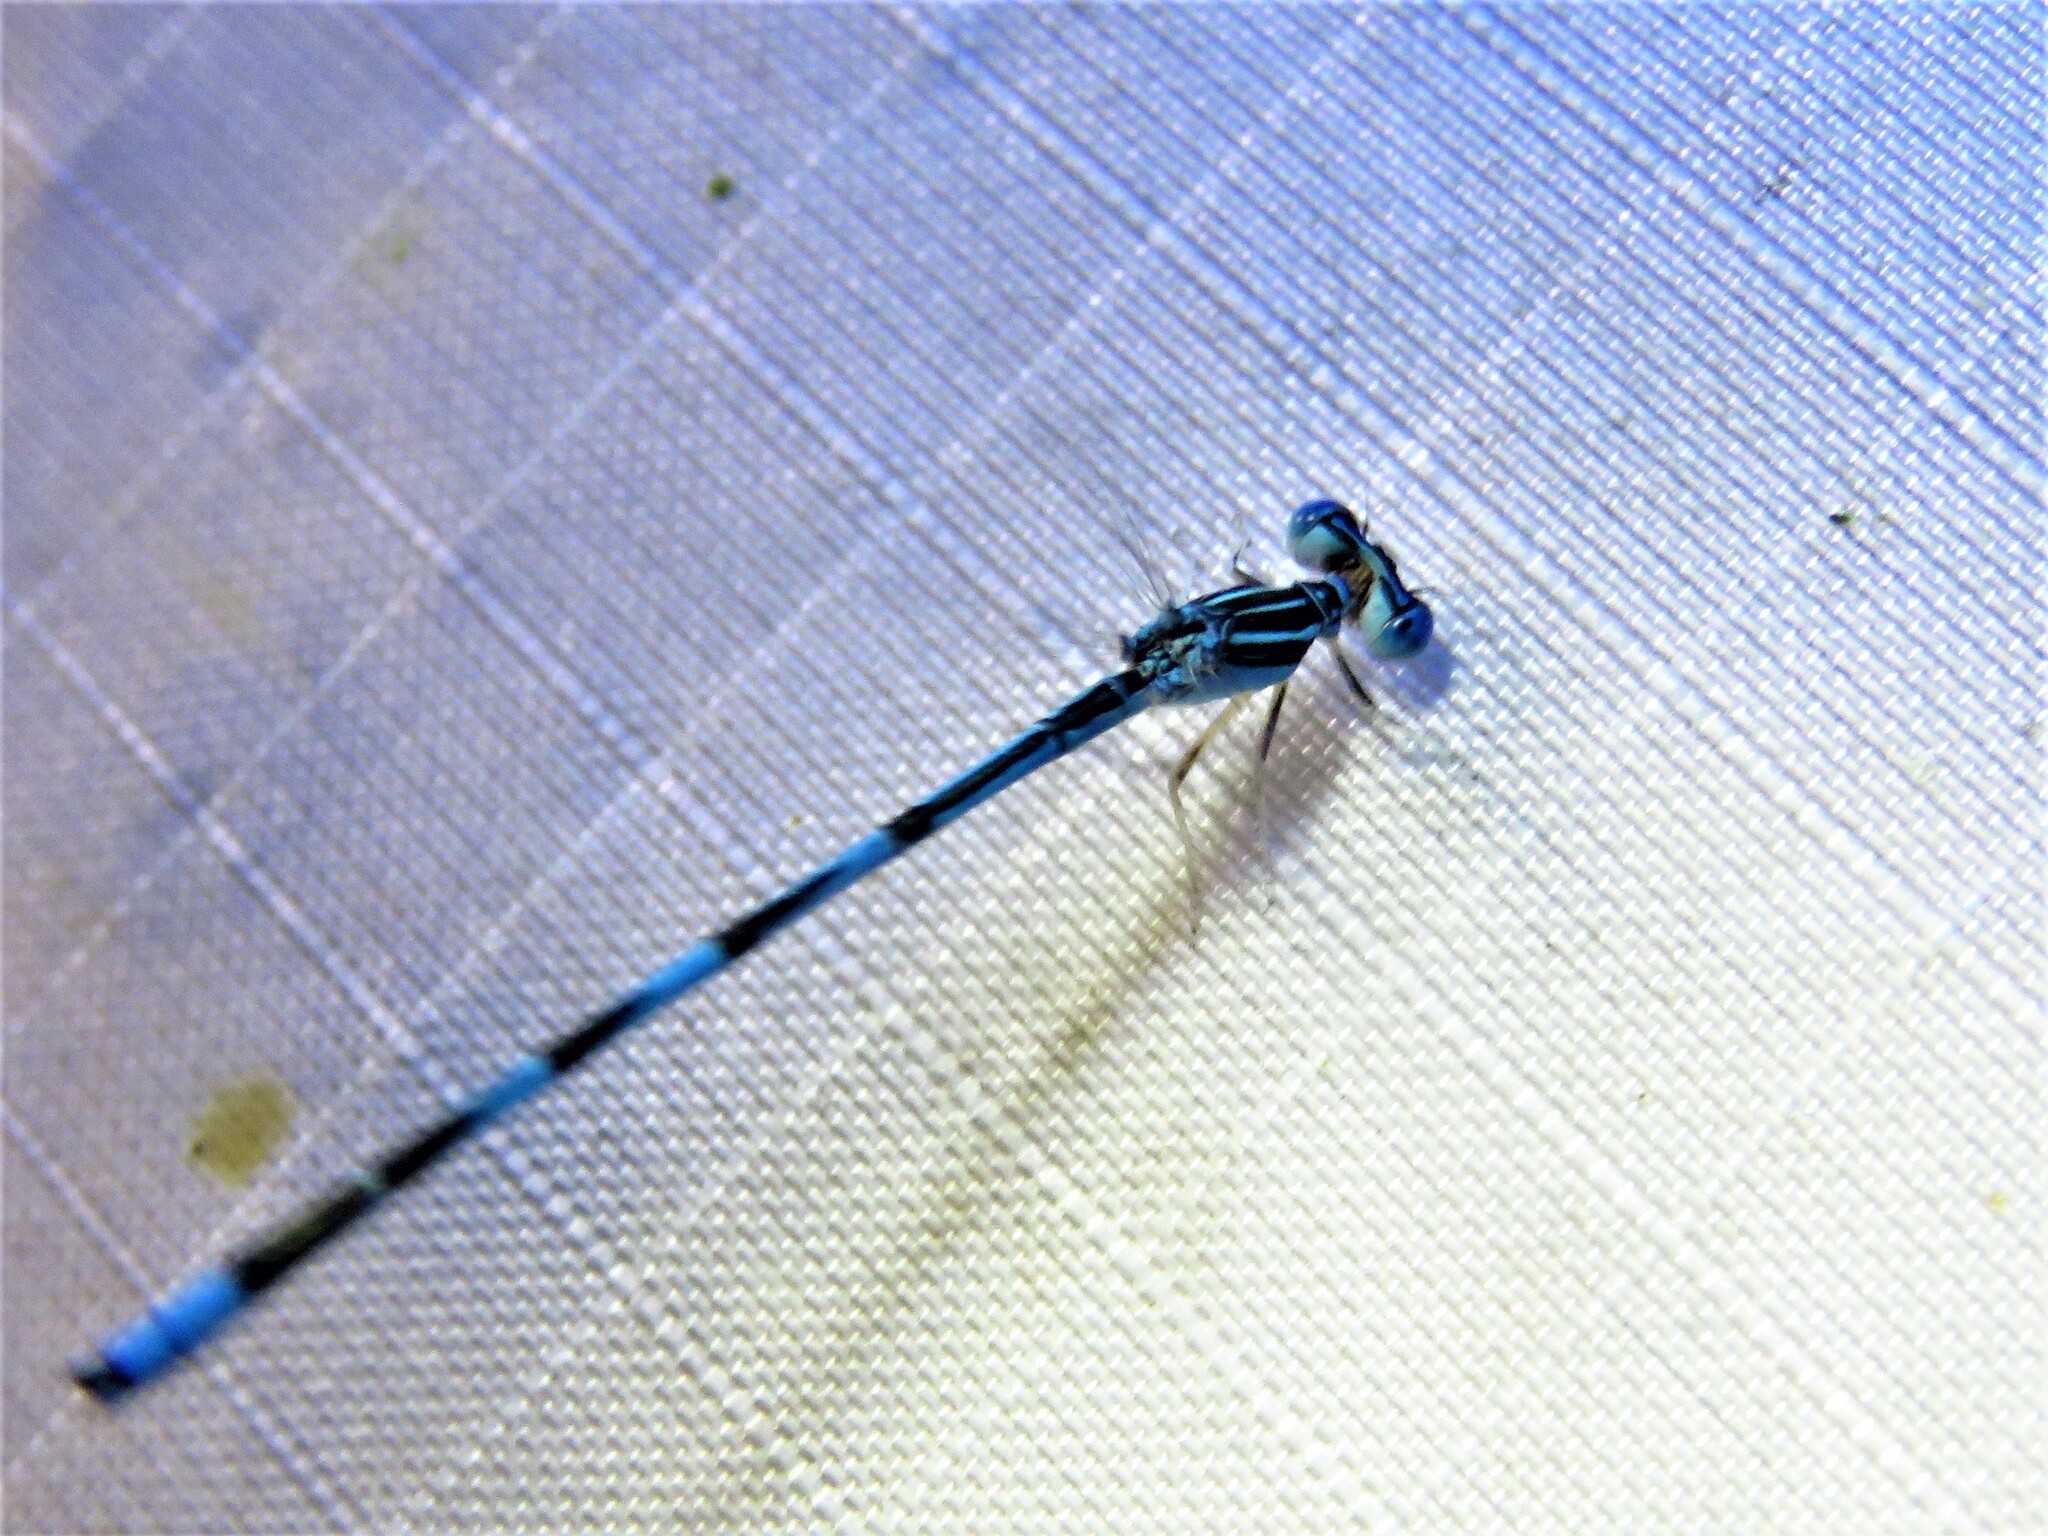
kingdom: Animalia
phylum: Arthropoda
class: Insecta
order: Odonata
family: Coenagrionidae
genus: Enallagma
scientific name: Enallagma basidens
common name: Double-striped bluet
